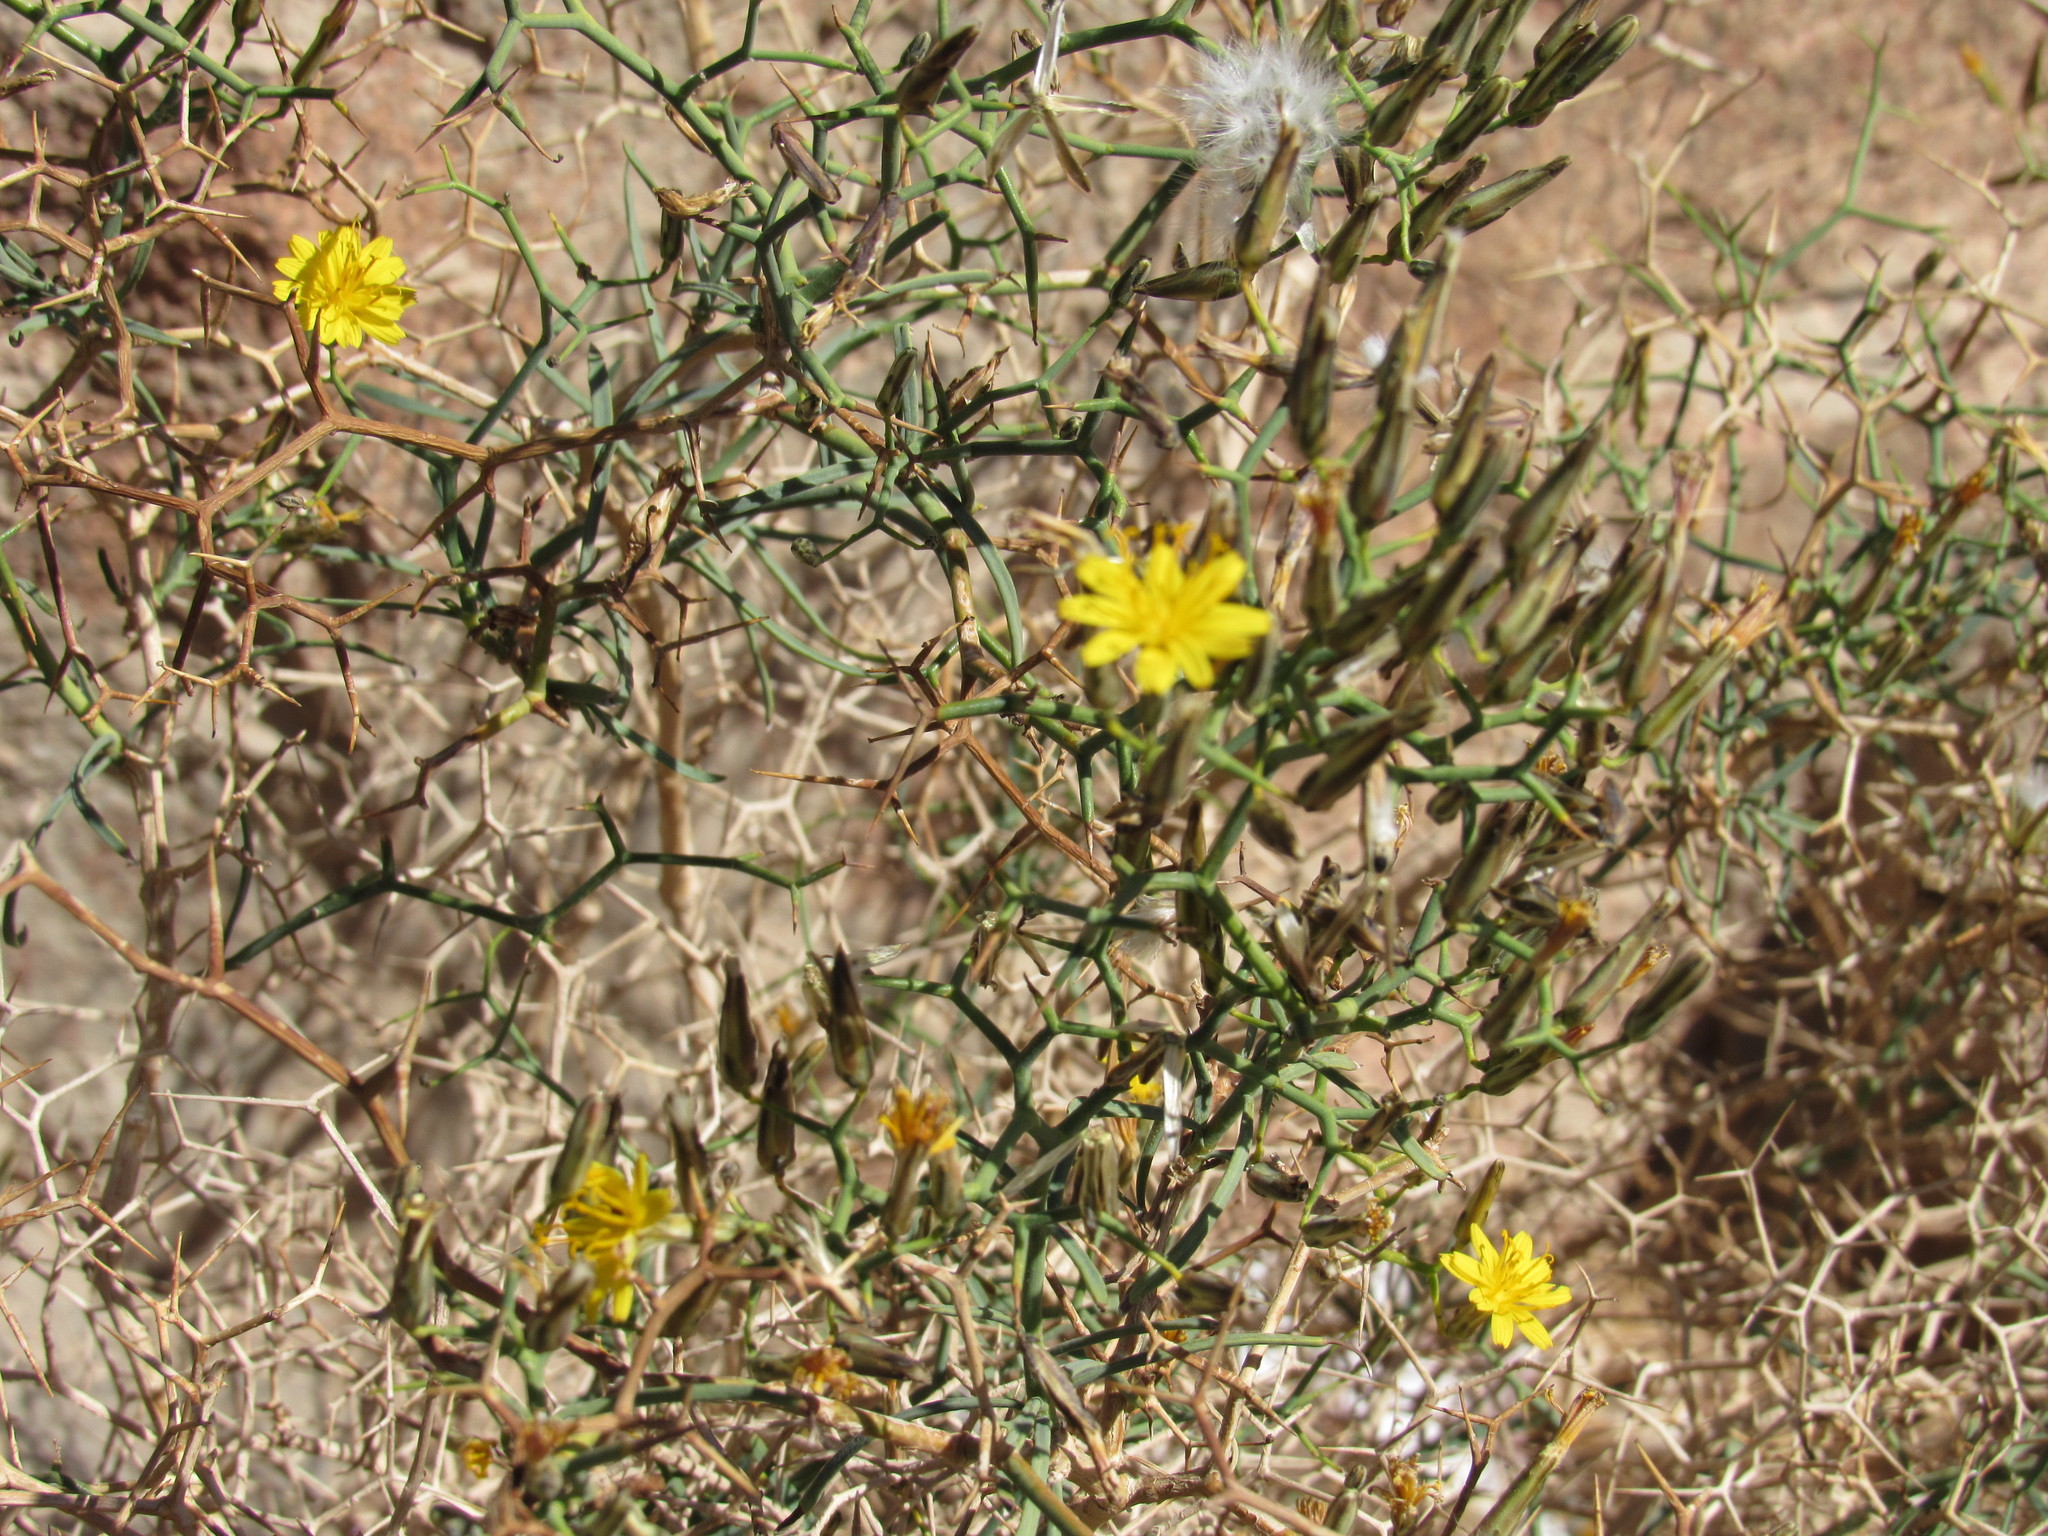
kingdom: Plantae
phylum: Tracheophyta
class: Magnoliopsida
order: Asterales
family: Asteraceae
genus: Launaea
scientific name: Launaea arborescens
